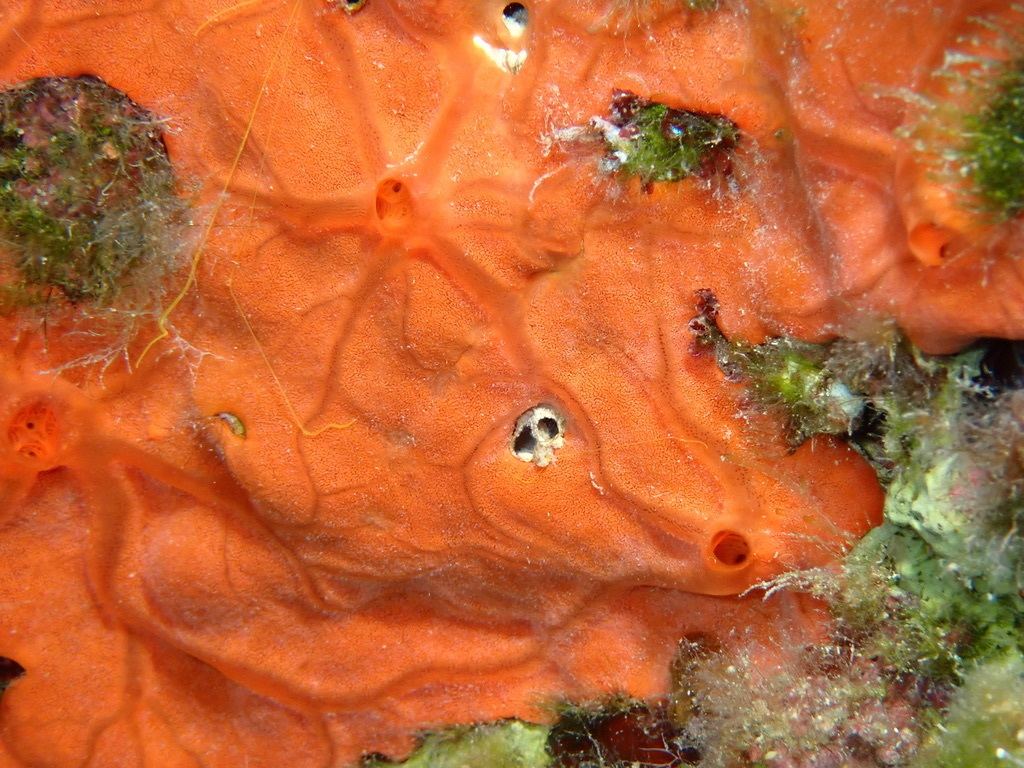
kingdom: Animalia
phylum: Porifera
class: Demospongiae
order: Clionaida
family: Spirastrellidae
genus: Spirastrella
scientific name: Spirastrella cunctatrix
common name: Encrusting orange sponge
